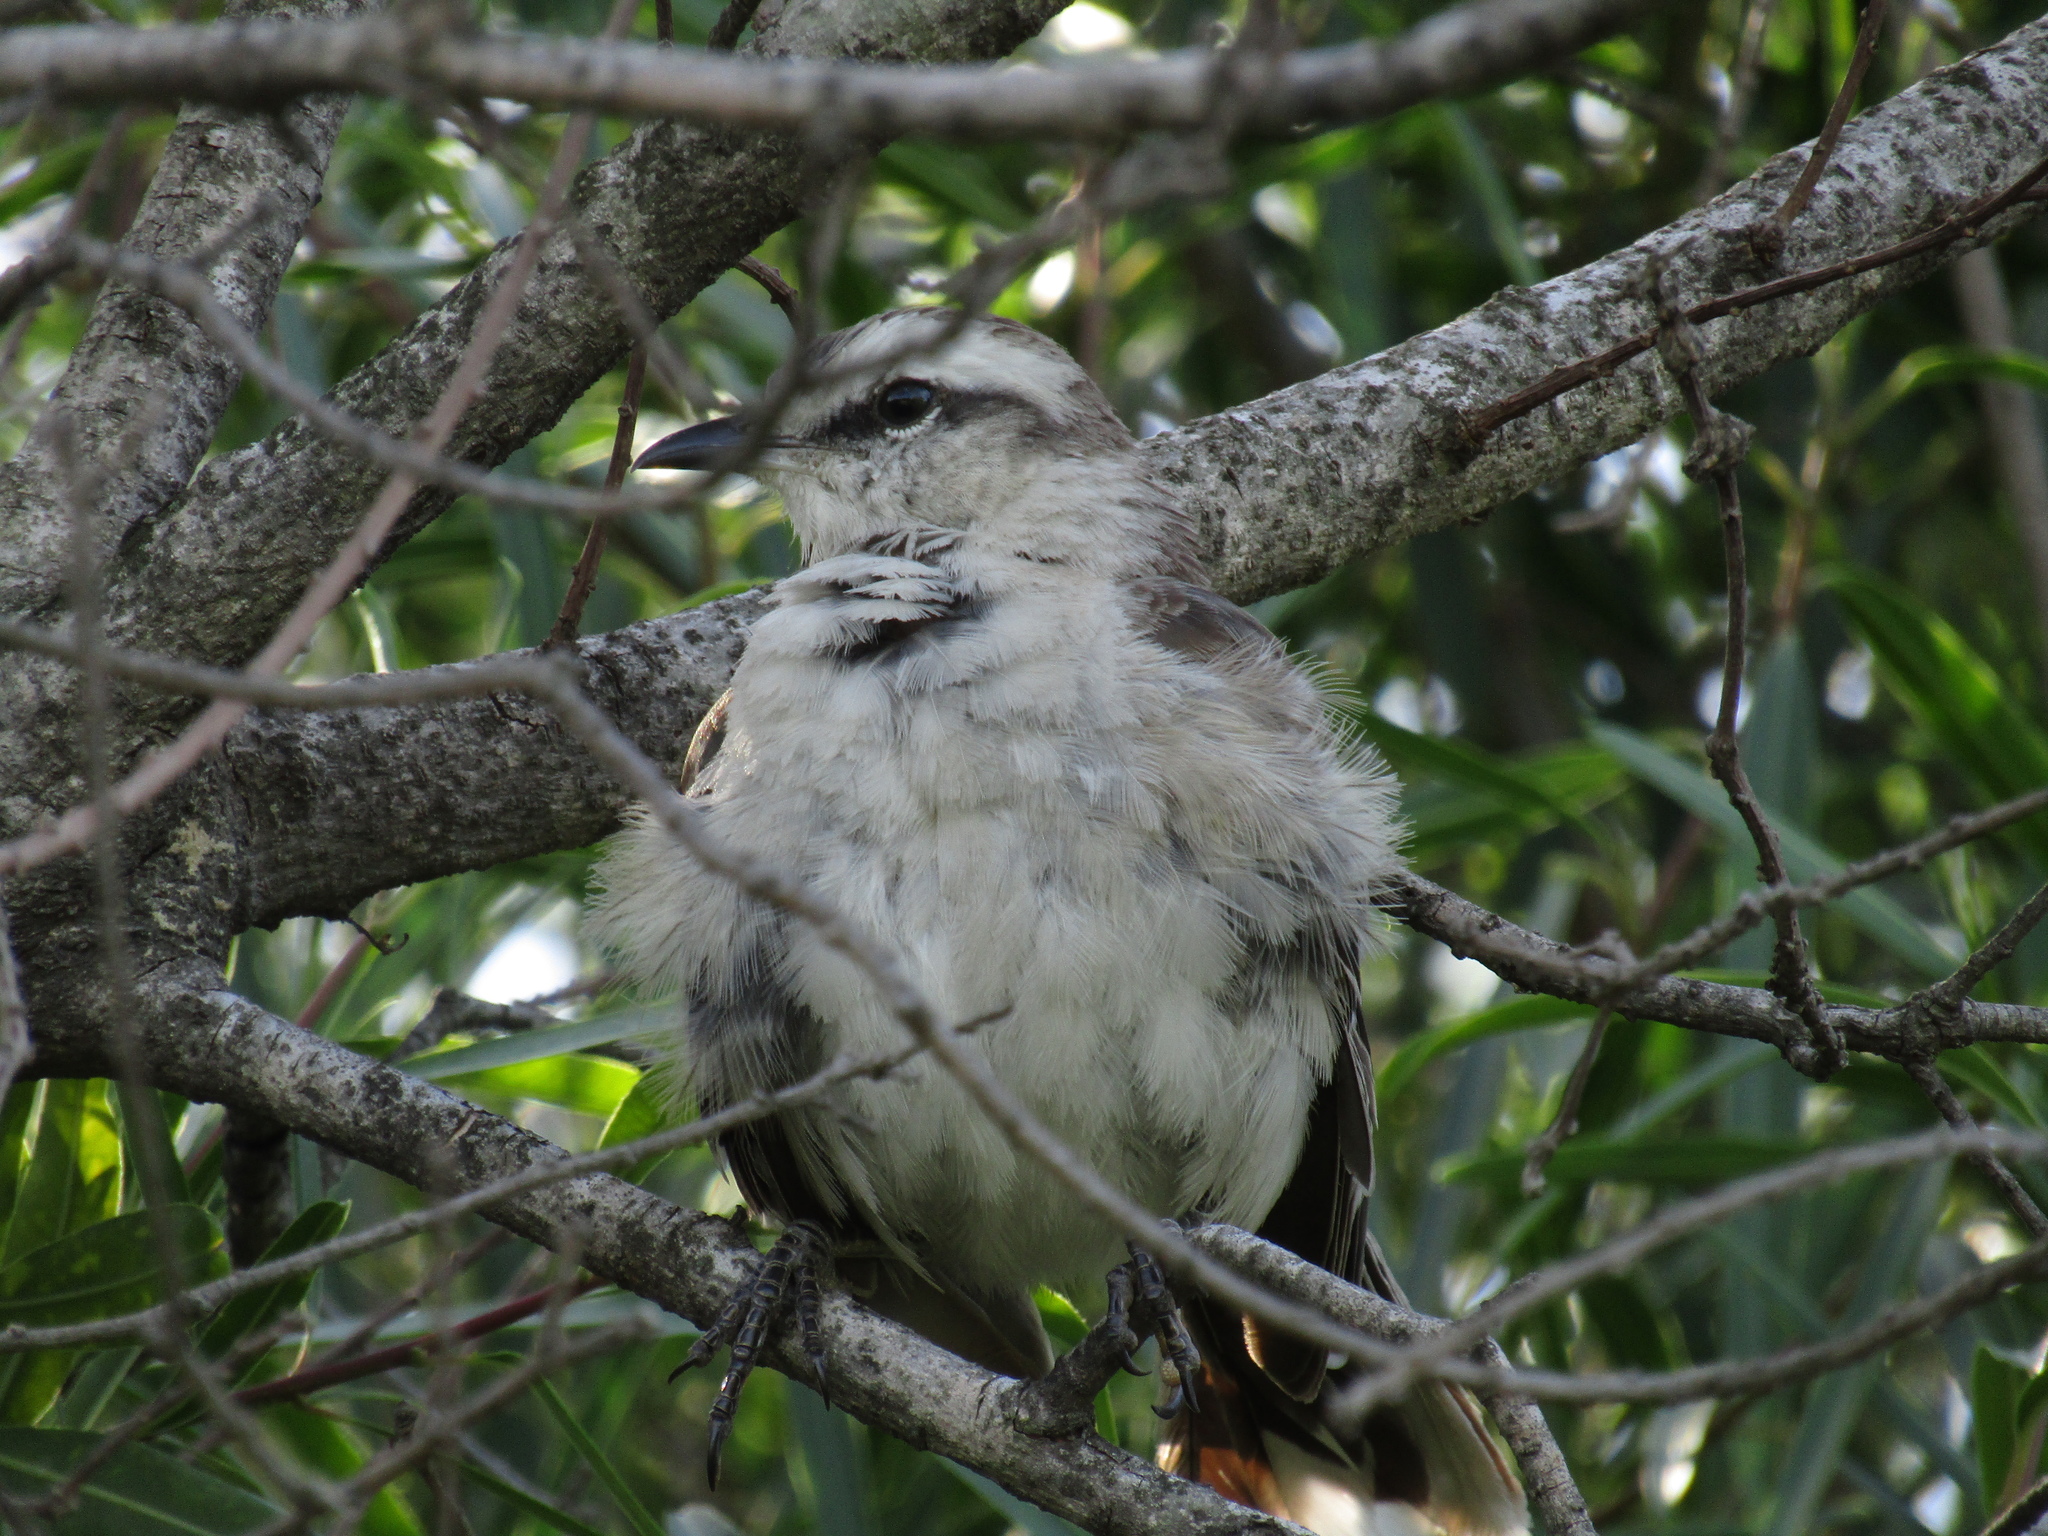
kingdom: Animalia
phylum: Chordata
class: Aves
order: Passeriformes
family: Mimidae
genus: Mimus
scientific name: Mimus saturninus
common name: Chalk-browed mockingbird
